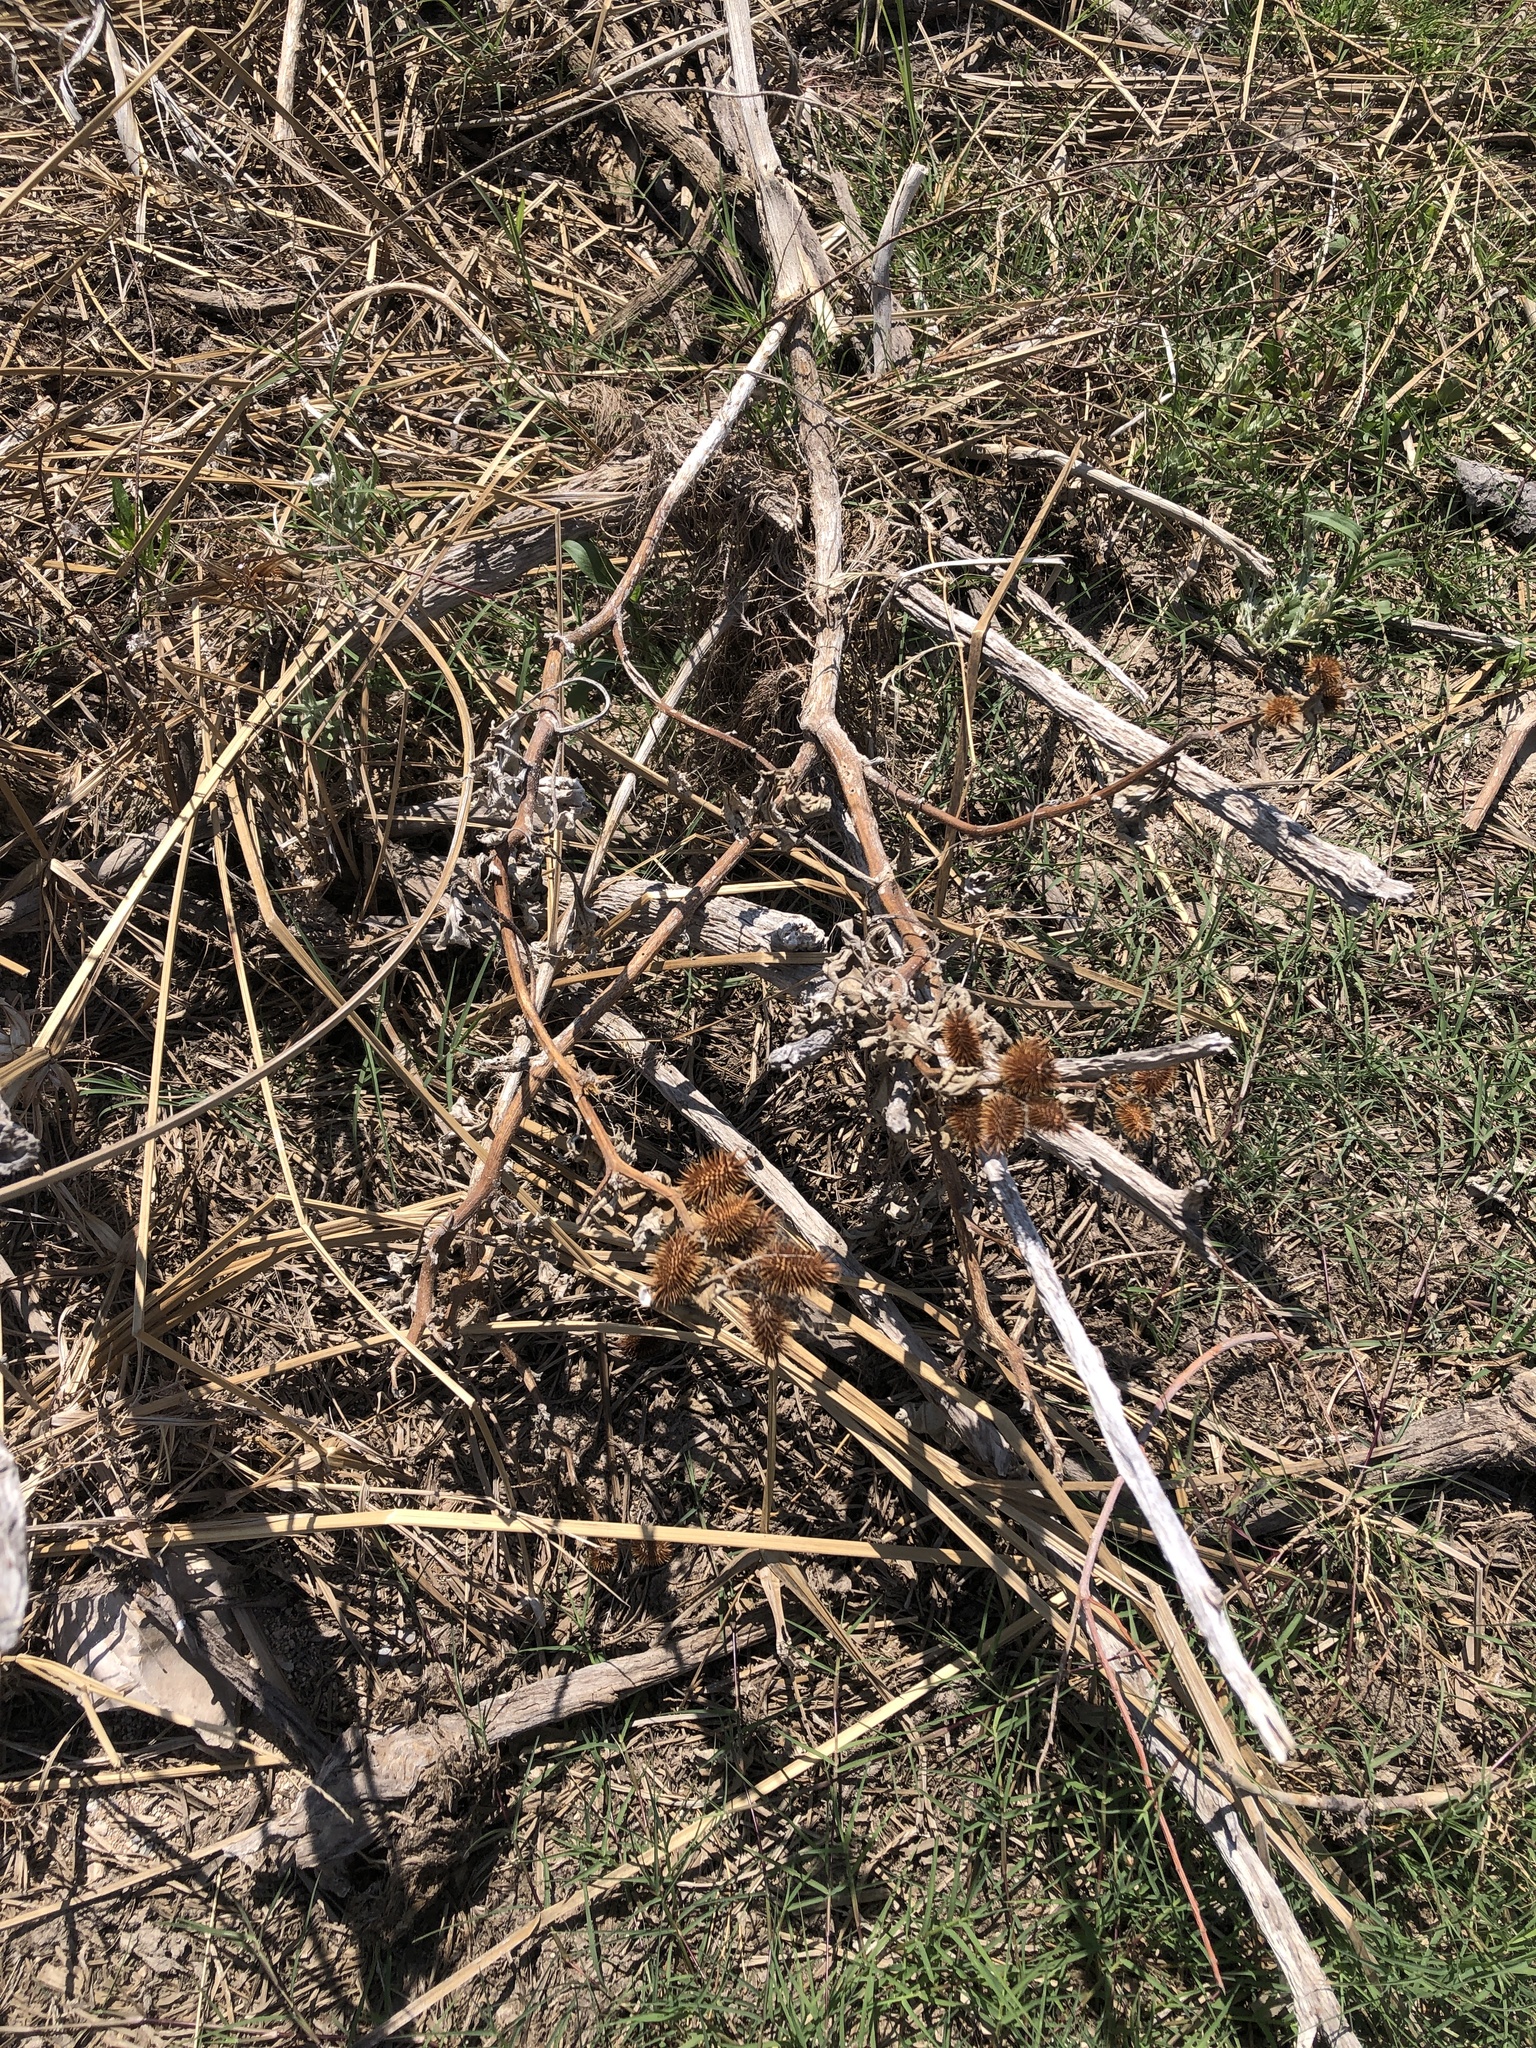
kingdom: Plantae
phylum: Tracheophyta
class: Magnoliopsida
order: Asterales
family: Asteraceae
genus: Xanthium
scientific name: Xanthium strumarium
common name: Rough cocklebur
